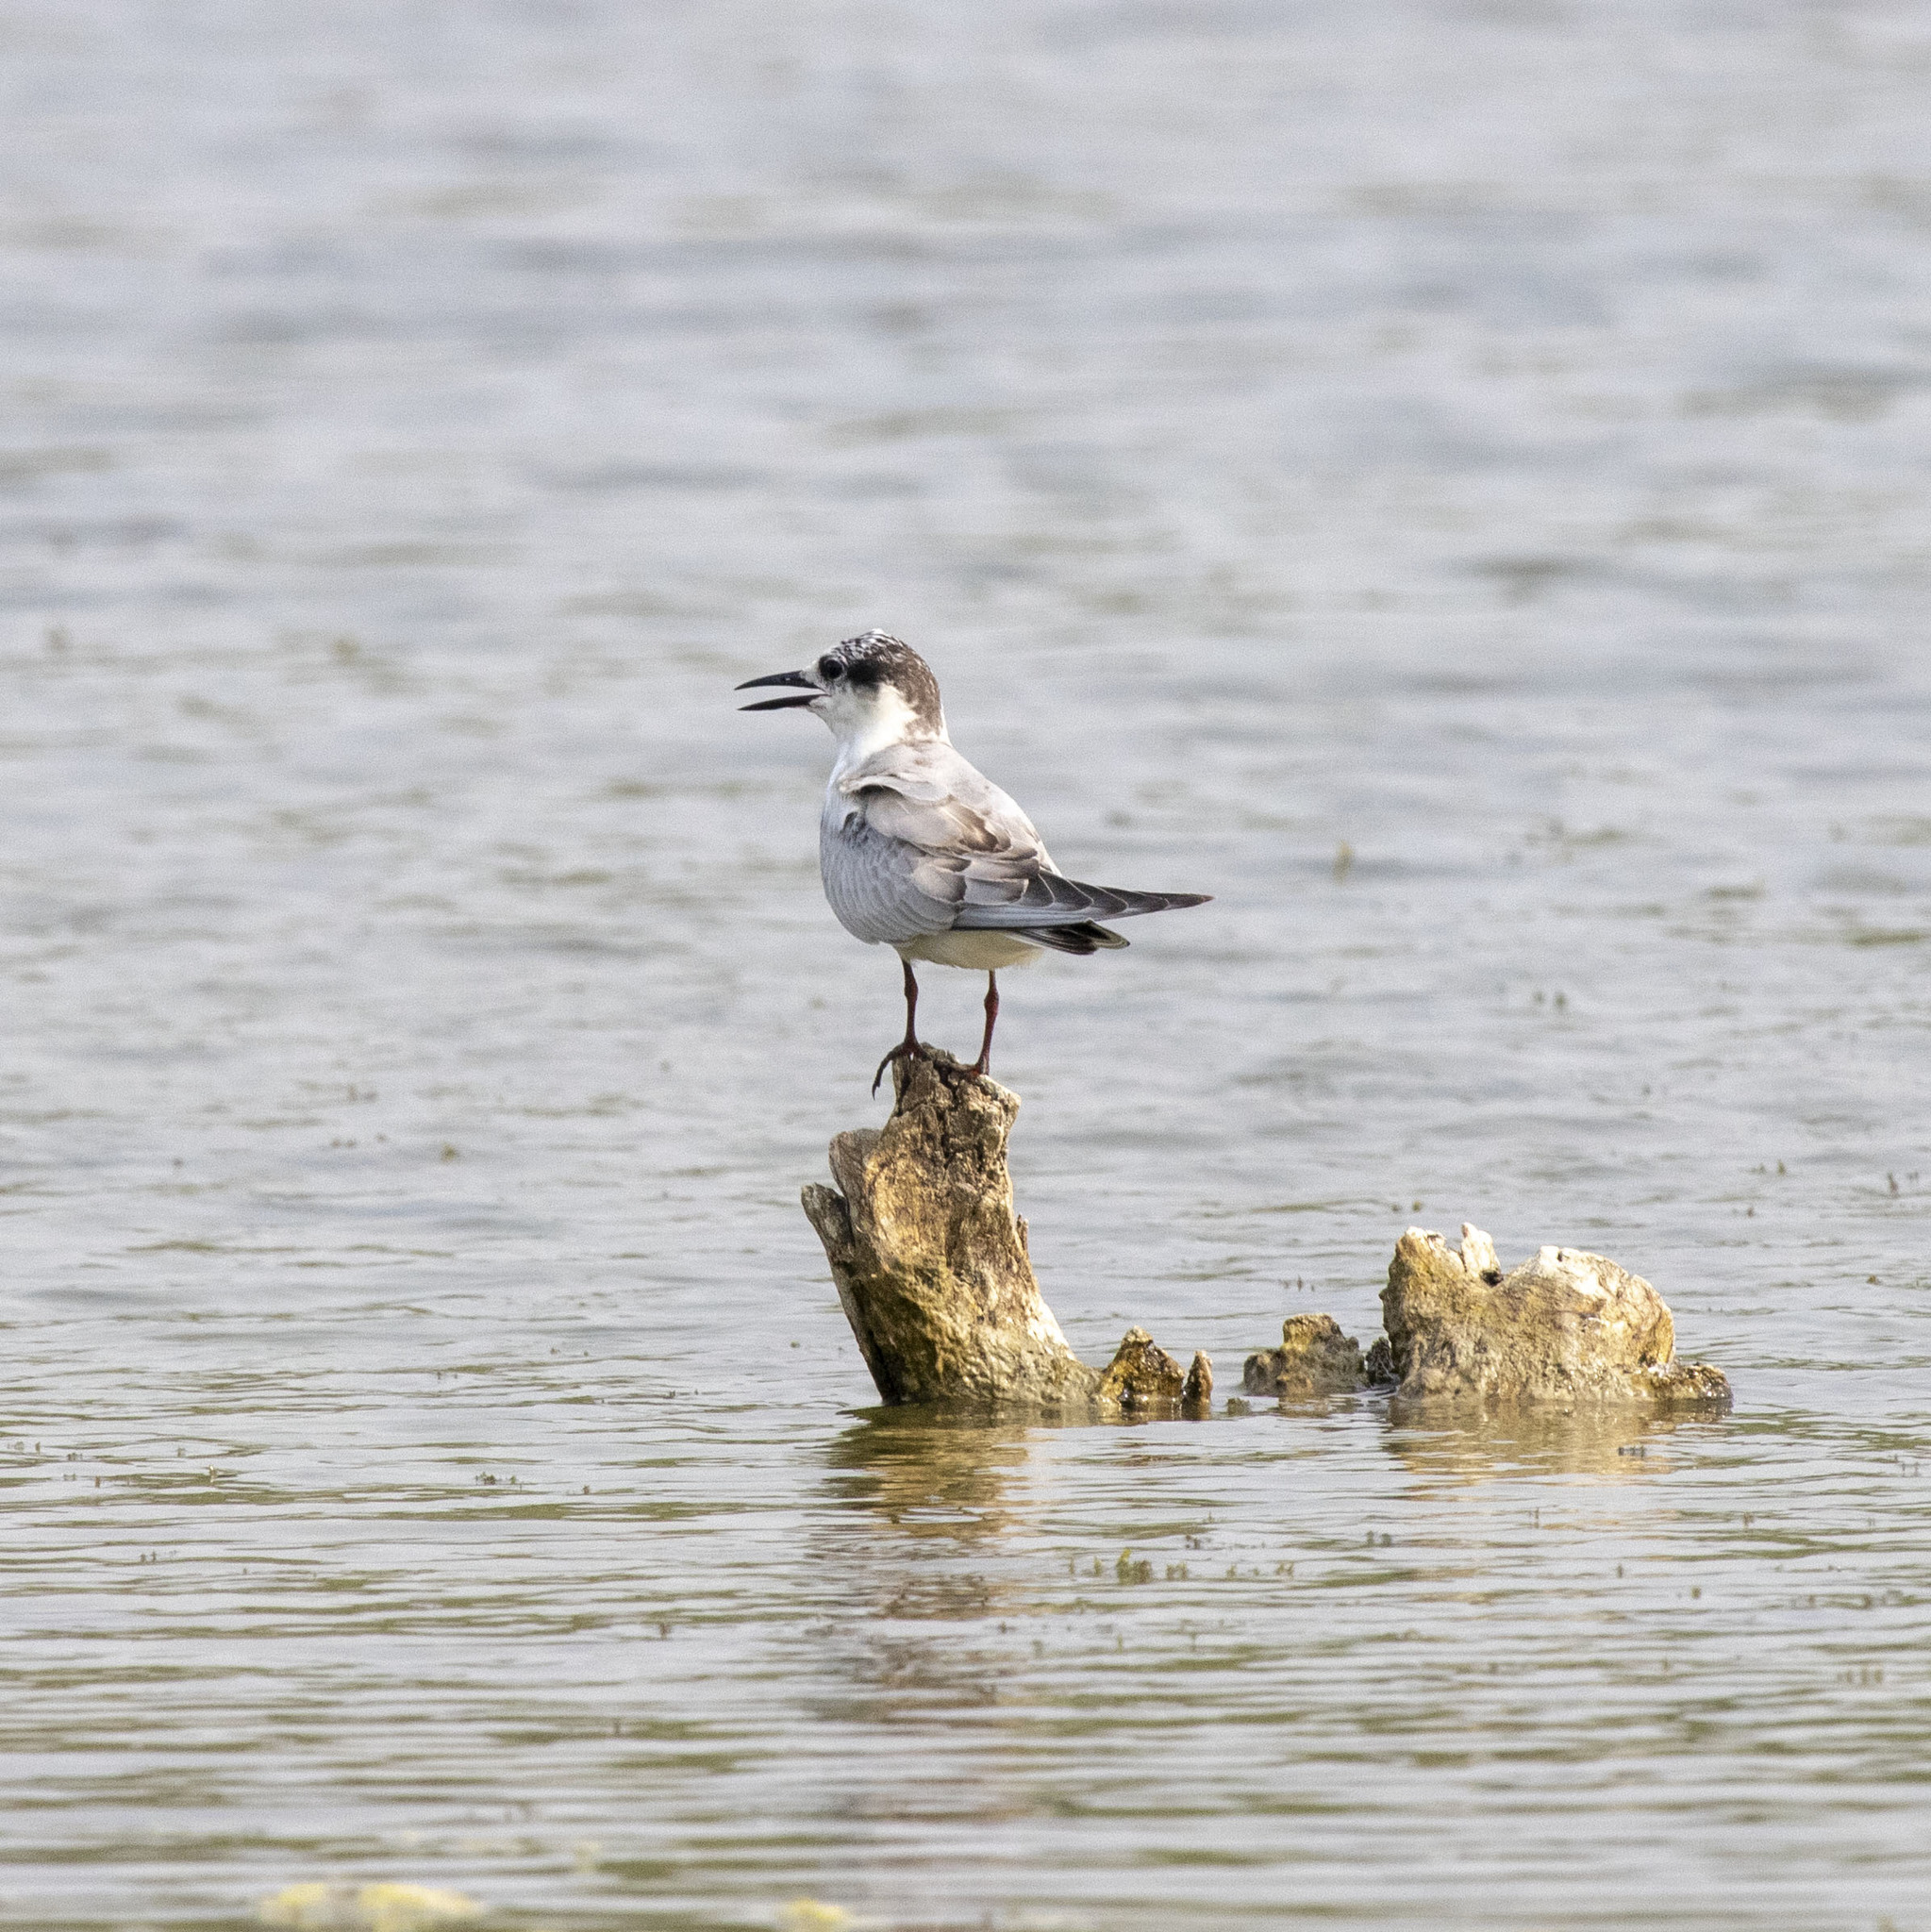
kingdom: Animalia
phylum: Chordata
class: Aves
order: Charadriiformes
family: Laridae
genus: Chlidonias
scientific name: Chlidonias hybrida
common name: Whiskered tern
